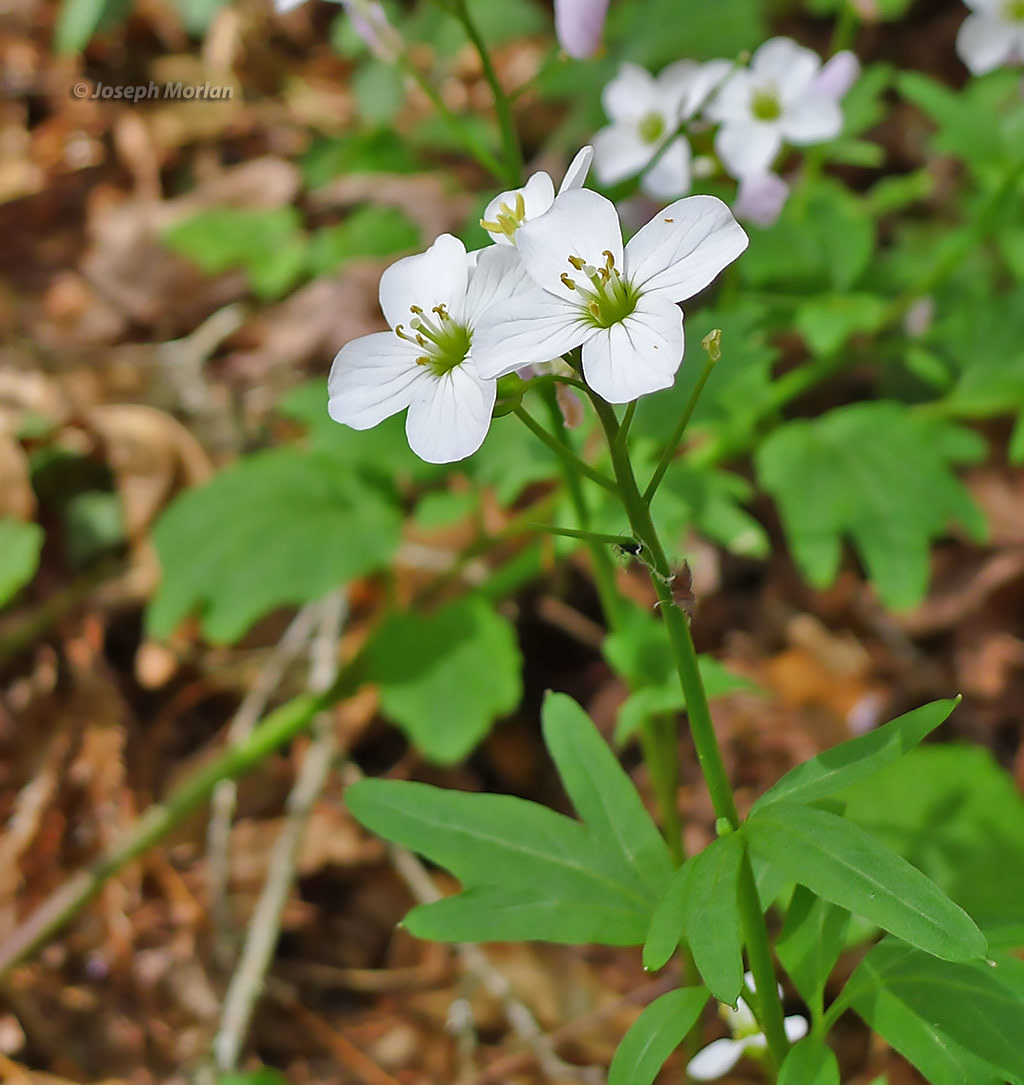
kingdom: Plantae
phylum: Tracheophyta
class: Magnoliopsida
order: Brassicales
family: Brassicaceae
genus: Cardamine
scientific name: Cardamine californica
